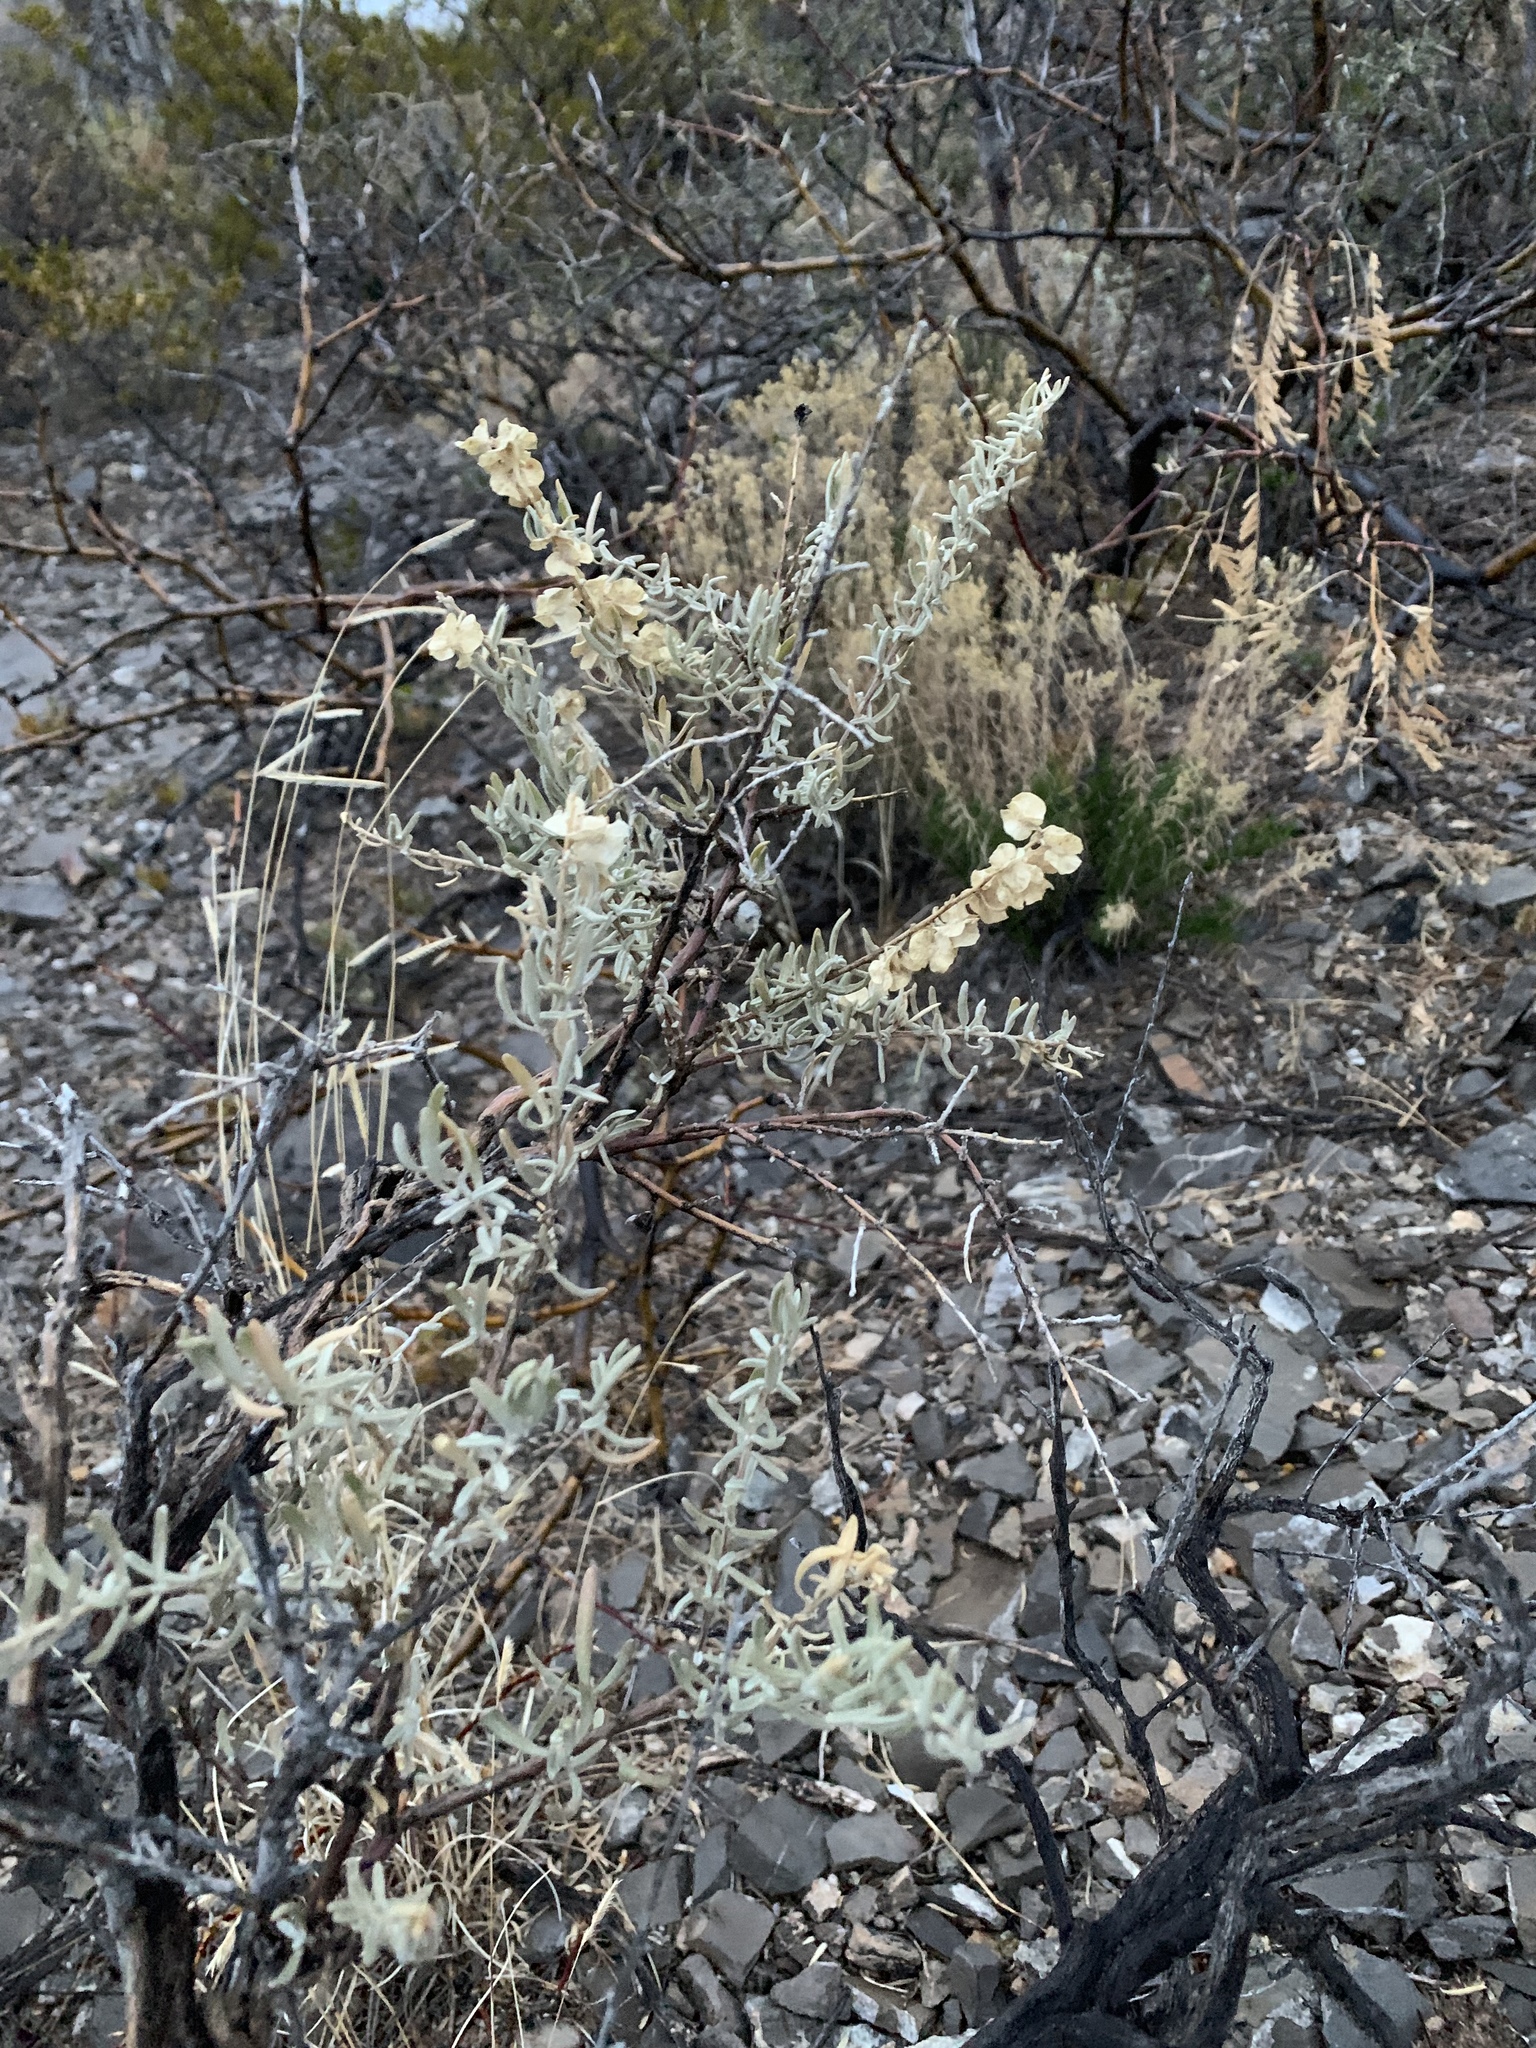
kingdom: Plantae
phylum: Tracheophyta
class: Magnoliopsida
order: Caryophyllales
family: Amaranthaceae
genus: Atriplex
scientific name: Atriplex canescens
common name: Four-wing saltbush
